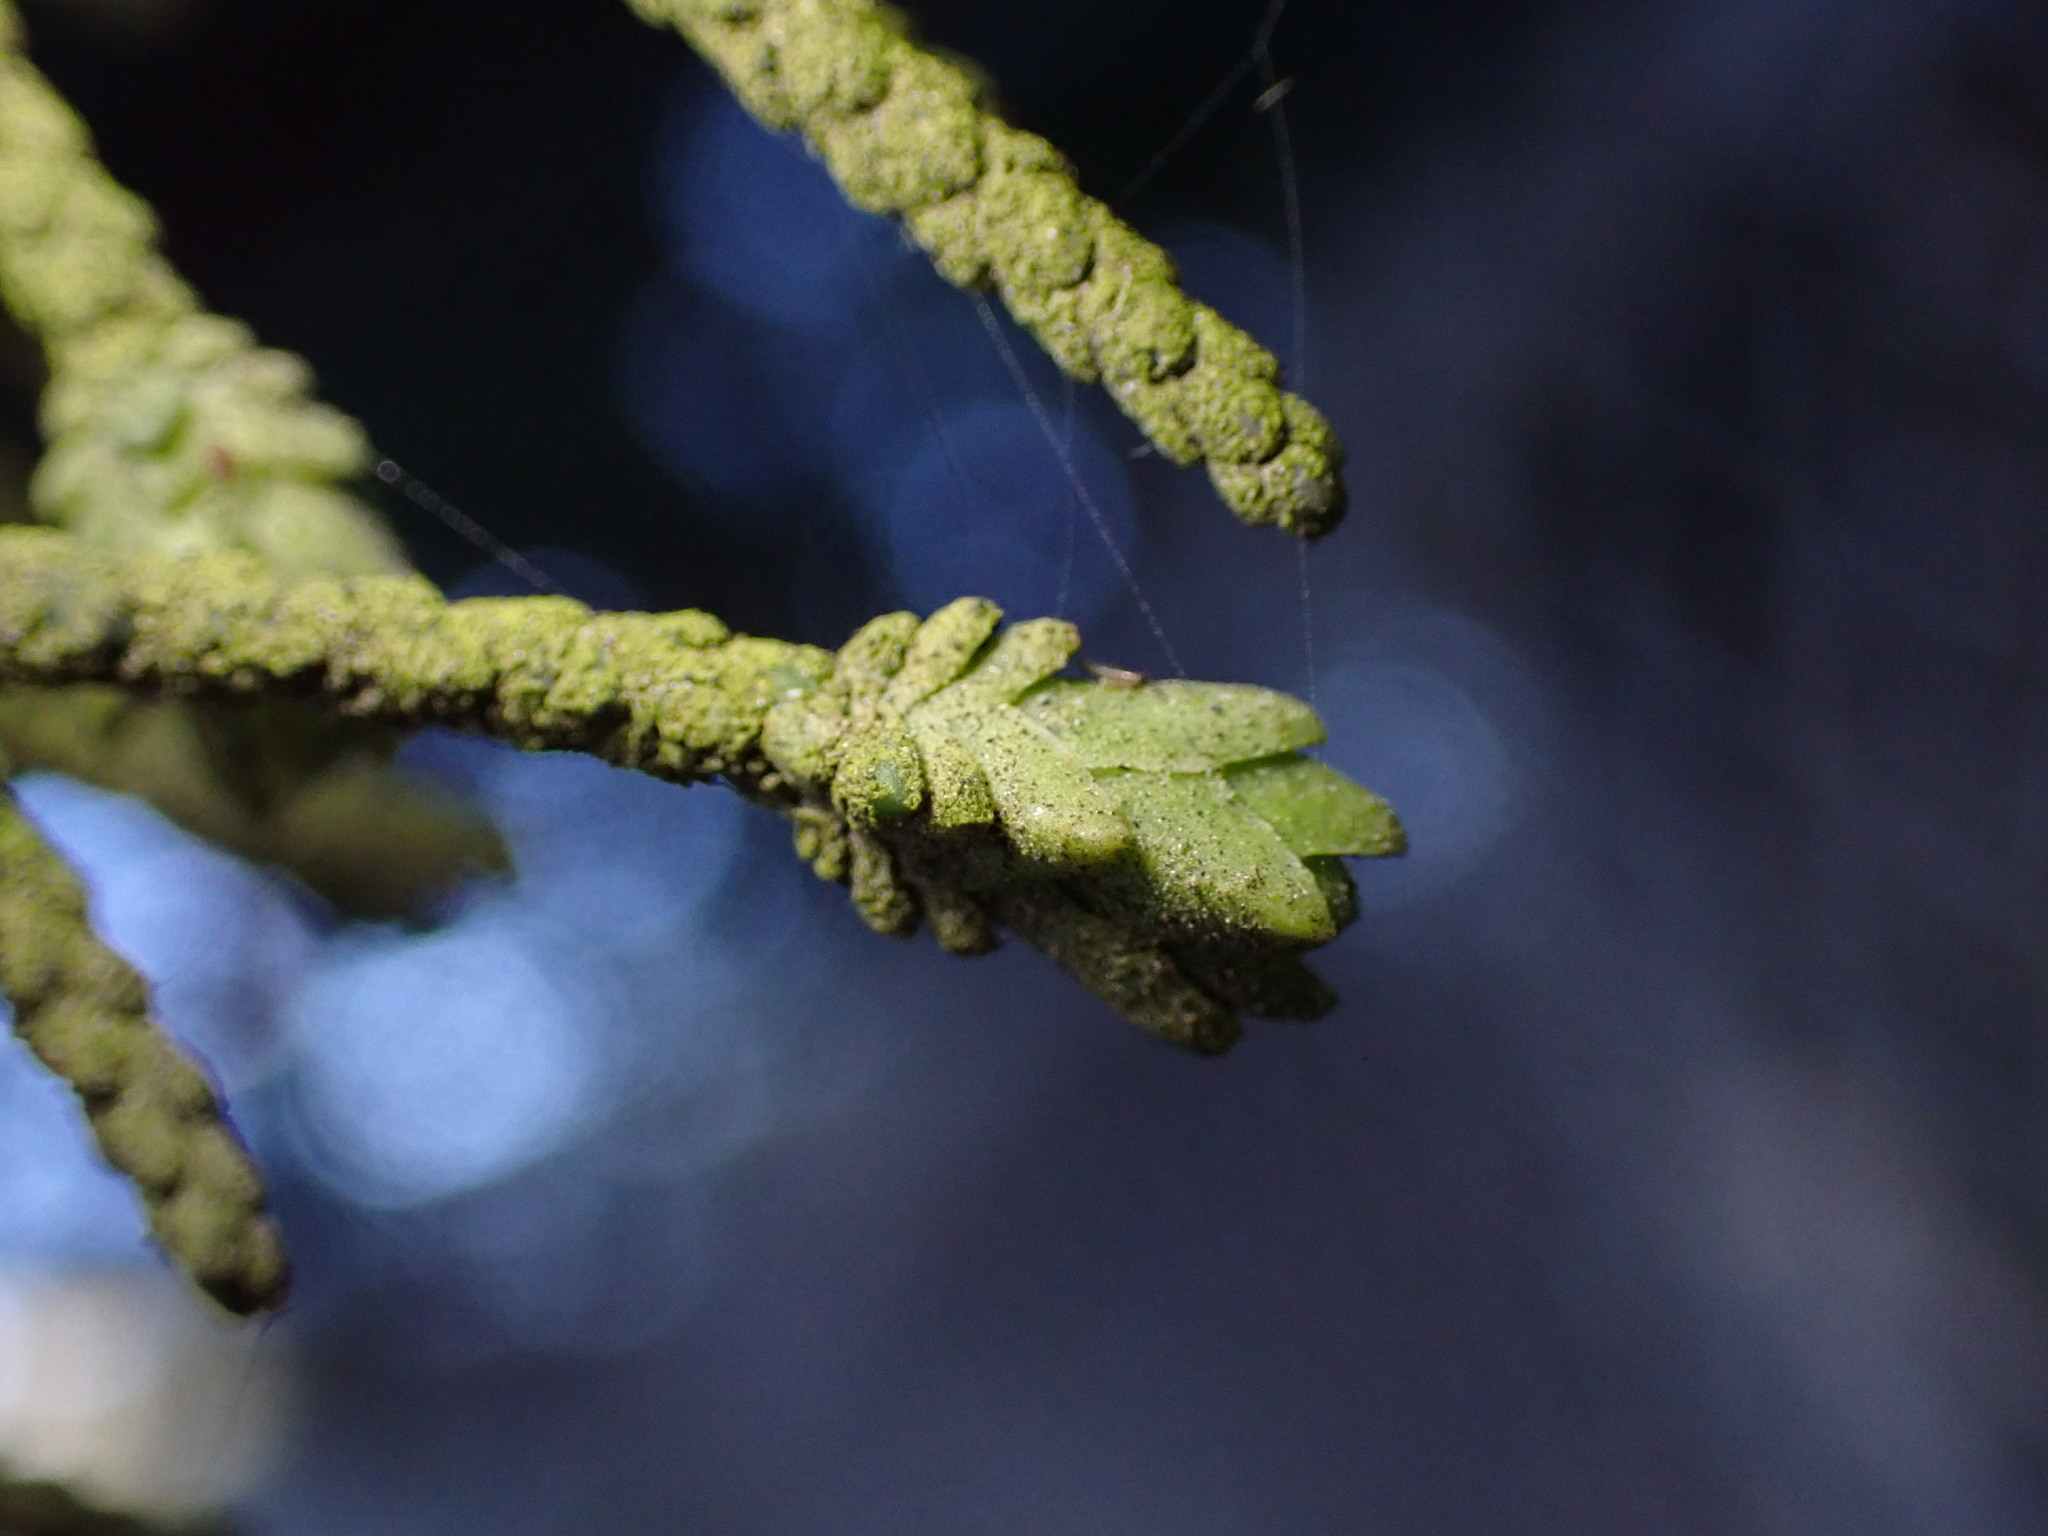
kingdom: Animalia
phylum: Arthropoda
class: Insecta
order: Diptera
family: Cecidomyiidae
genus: Oligotrophus
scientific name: Oligotrophus cupressi
